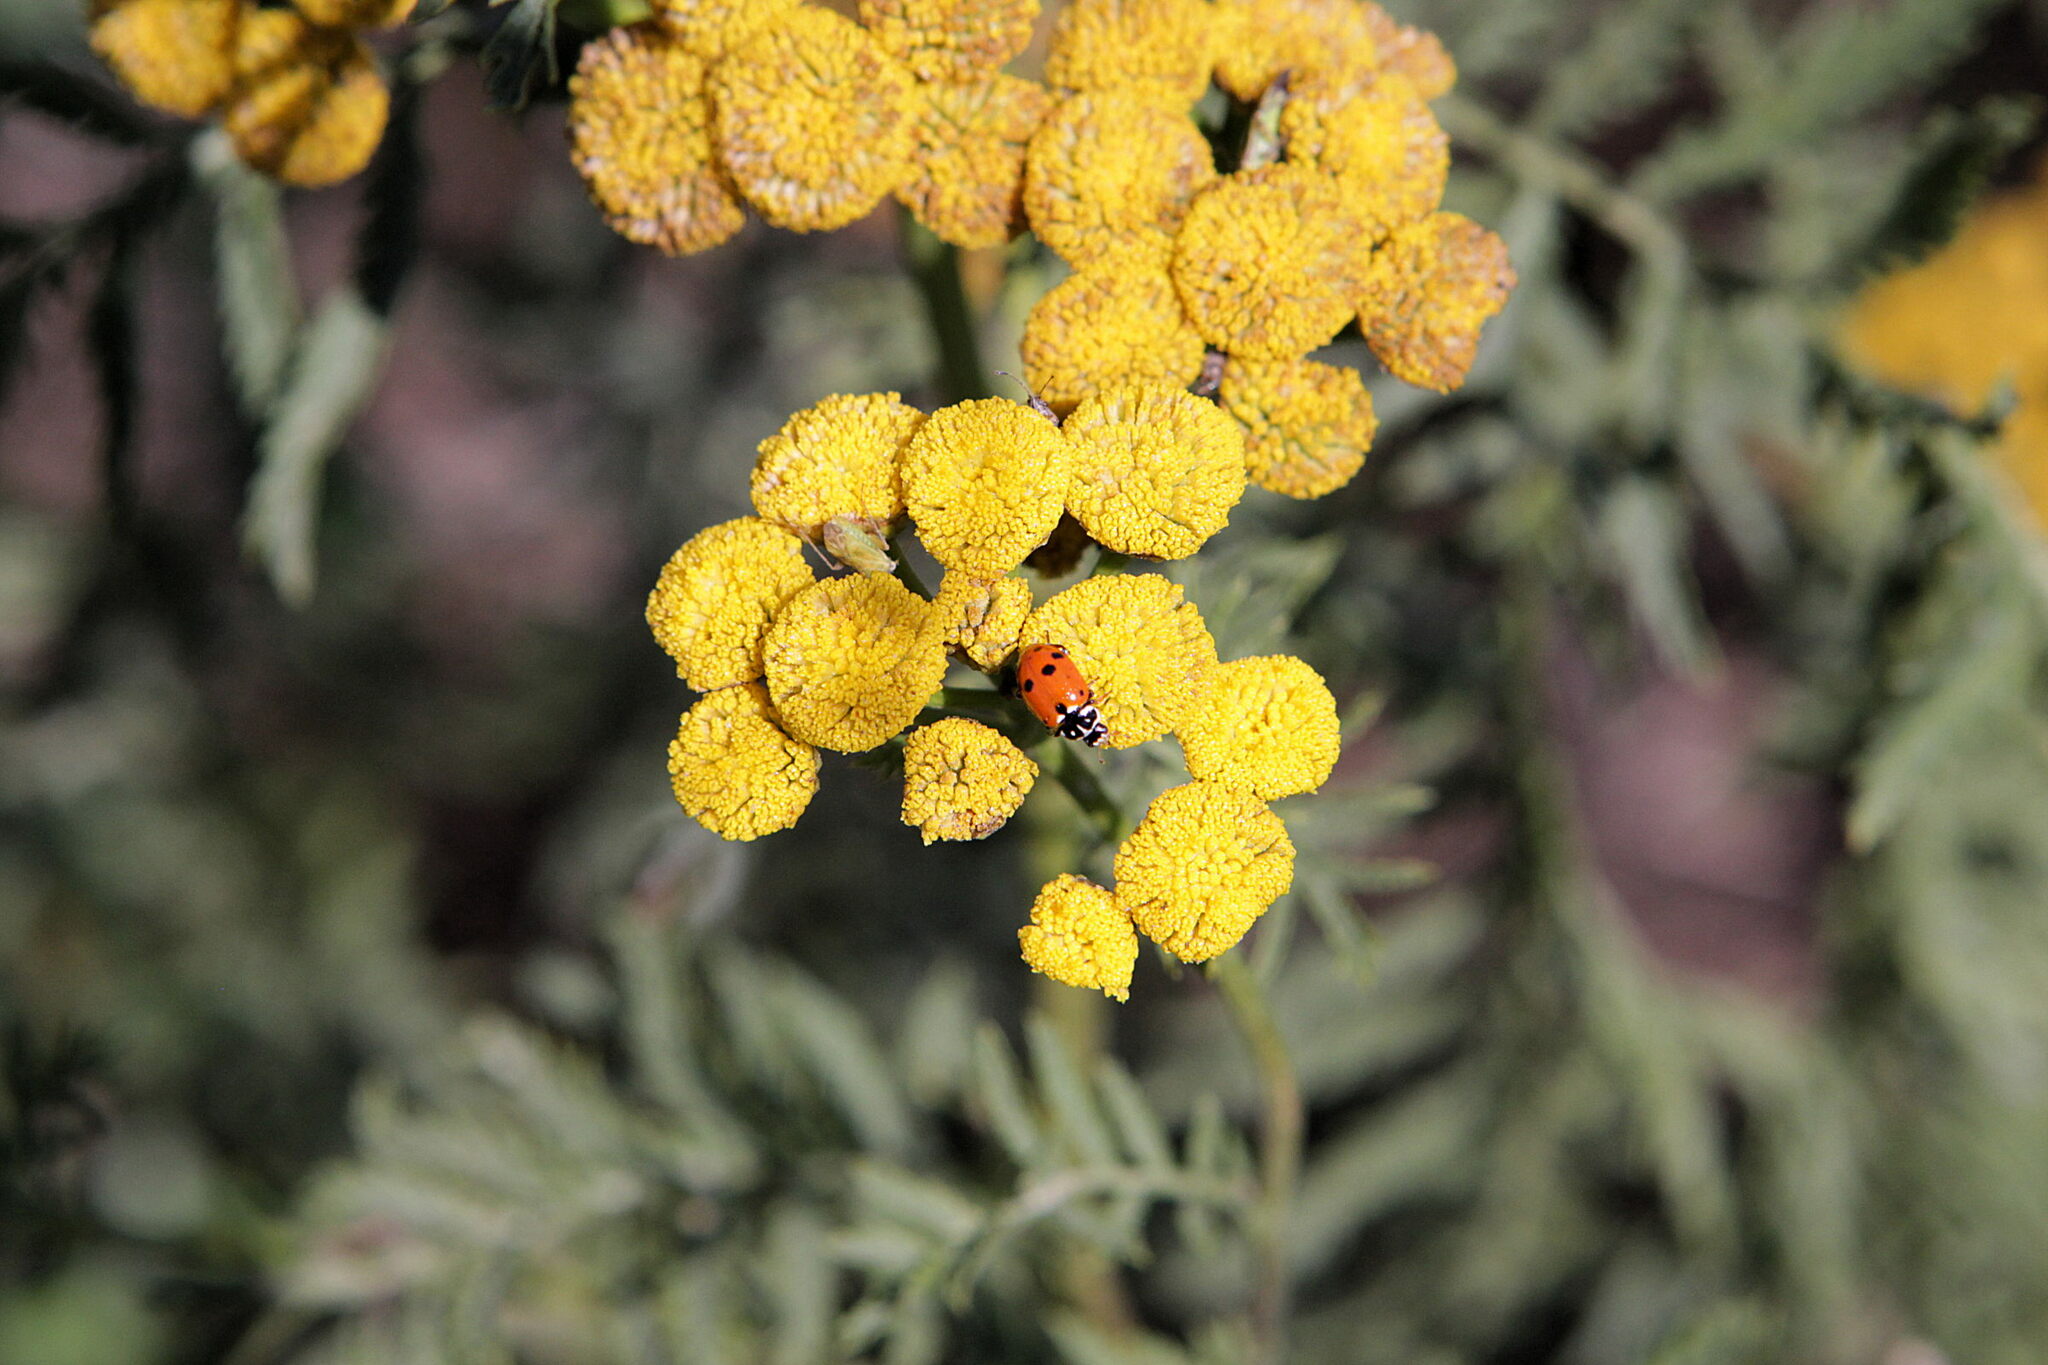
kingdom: Animalia
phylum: Arthropoda
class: Insecta
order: Coleoptera
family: Coccinellidae
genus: Hippodamia
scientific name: Hippodamia variegata
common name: Ladybird beetle
